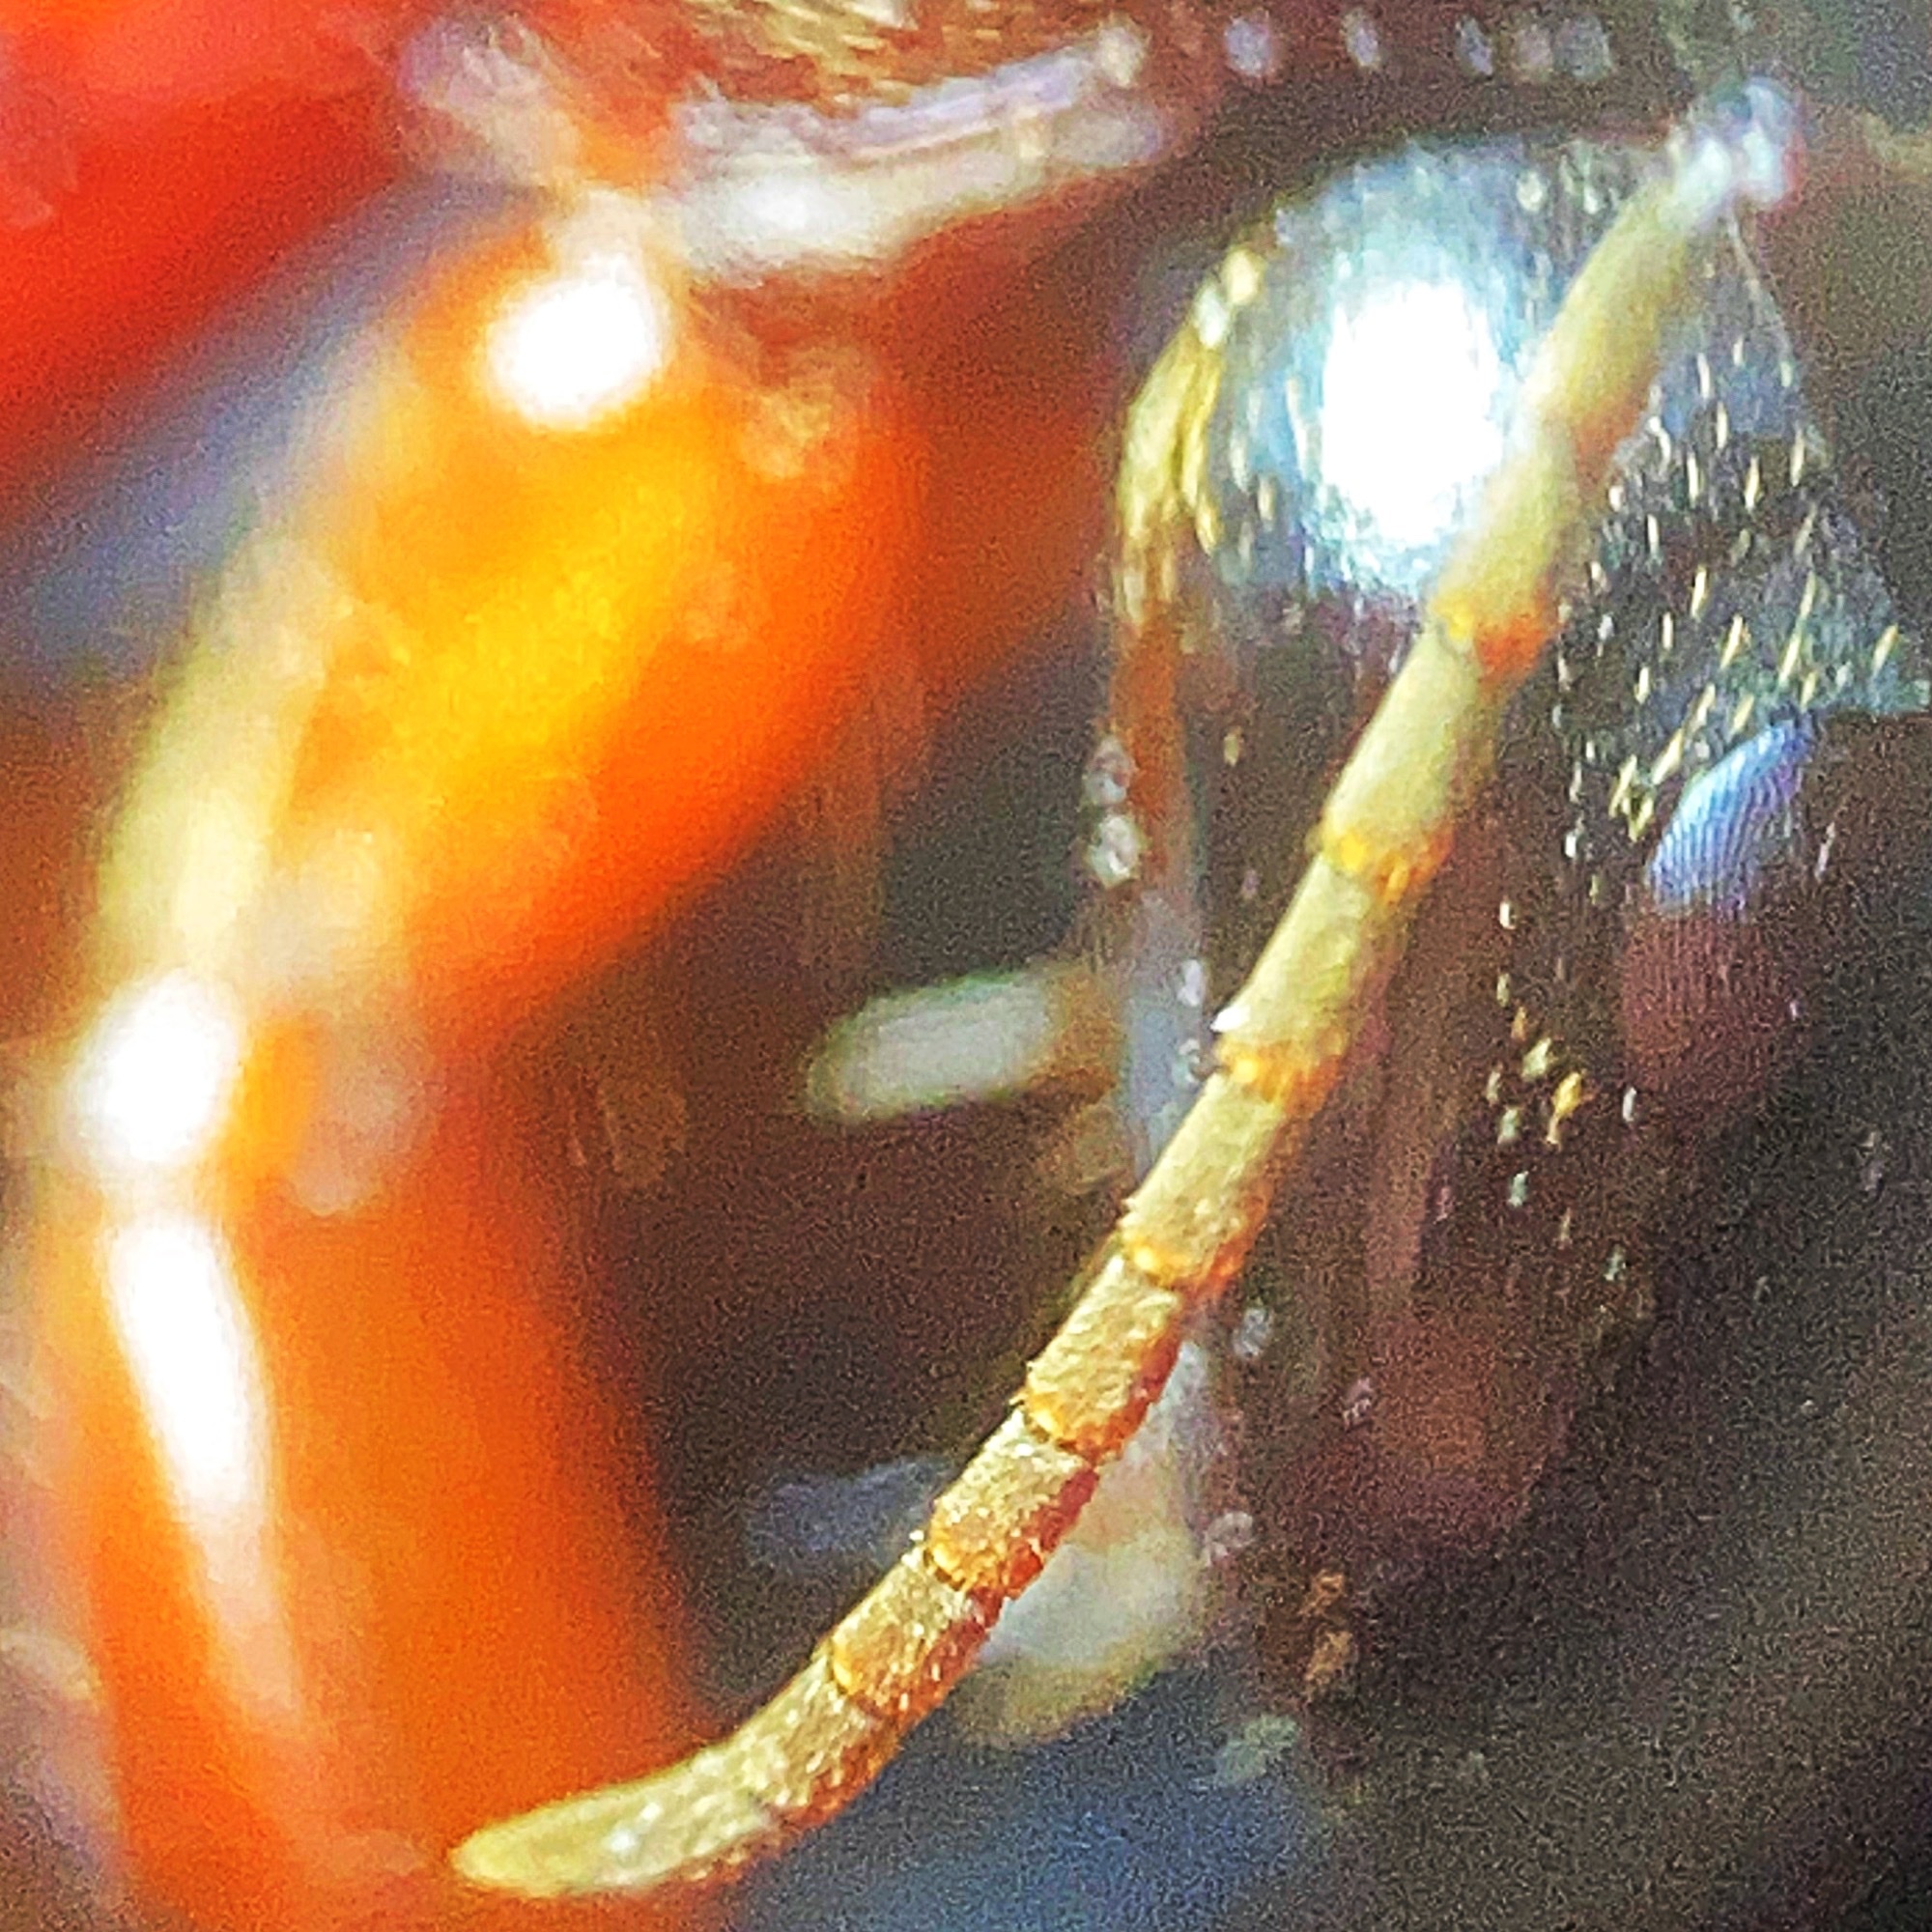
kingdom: Animalia
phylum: Arthropoda
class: Insecta
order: Hymenoptera
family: Formicidae
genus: Camponotus
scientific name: Camponotus chromaiodes
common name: Red carpenter ant
